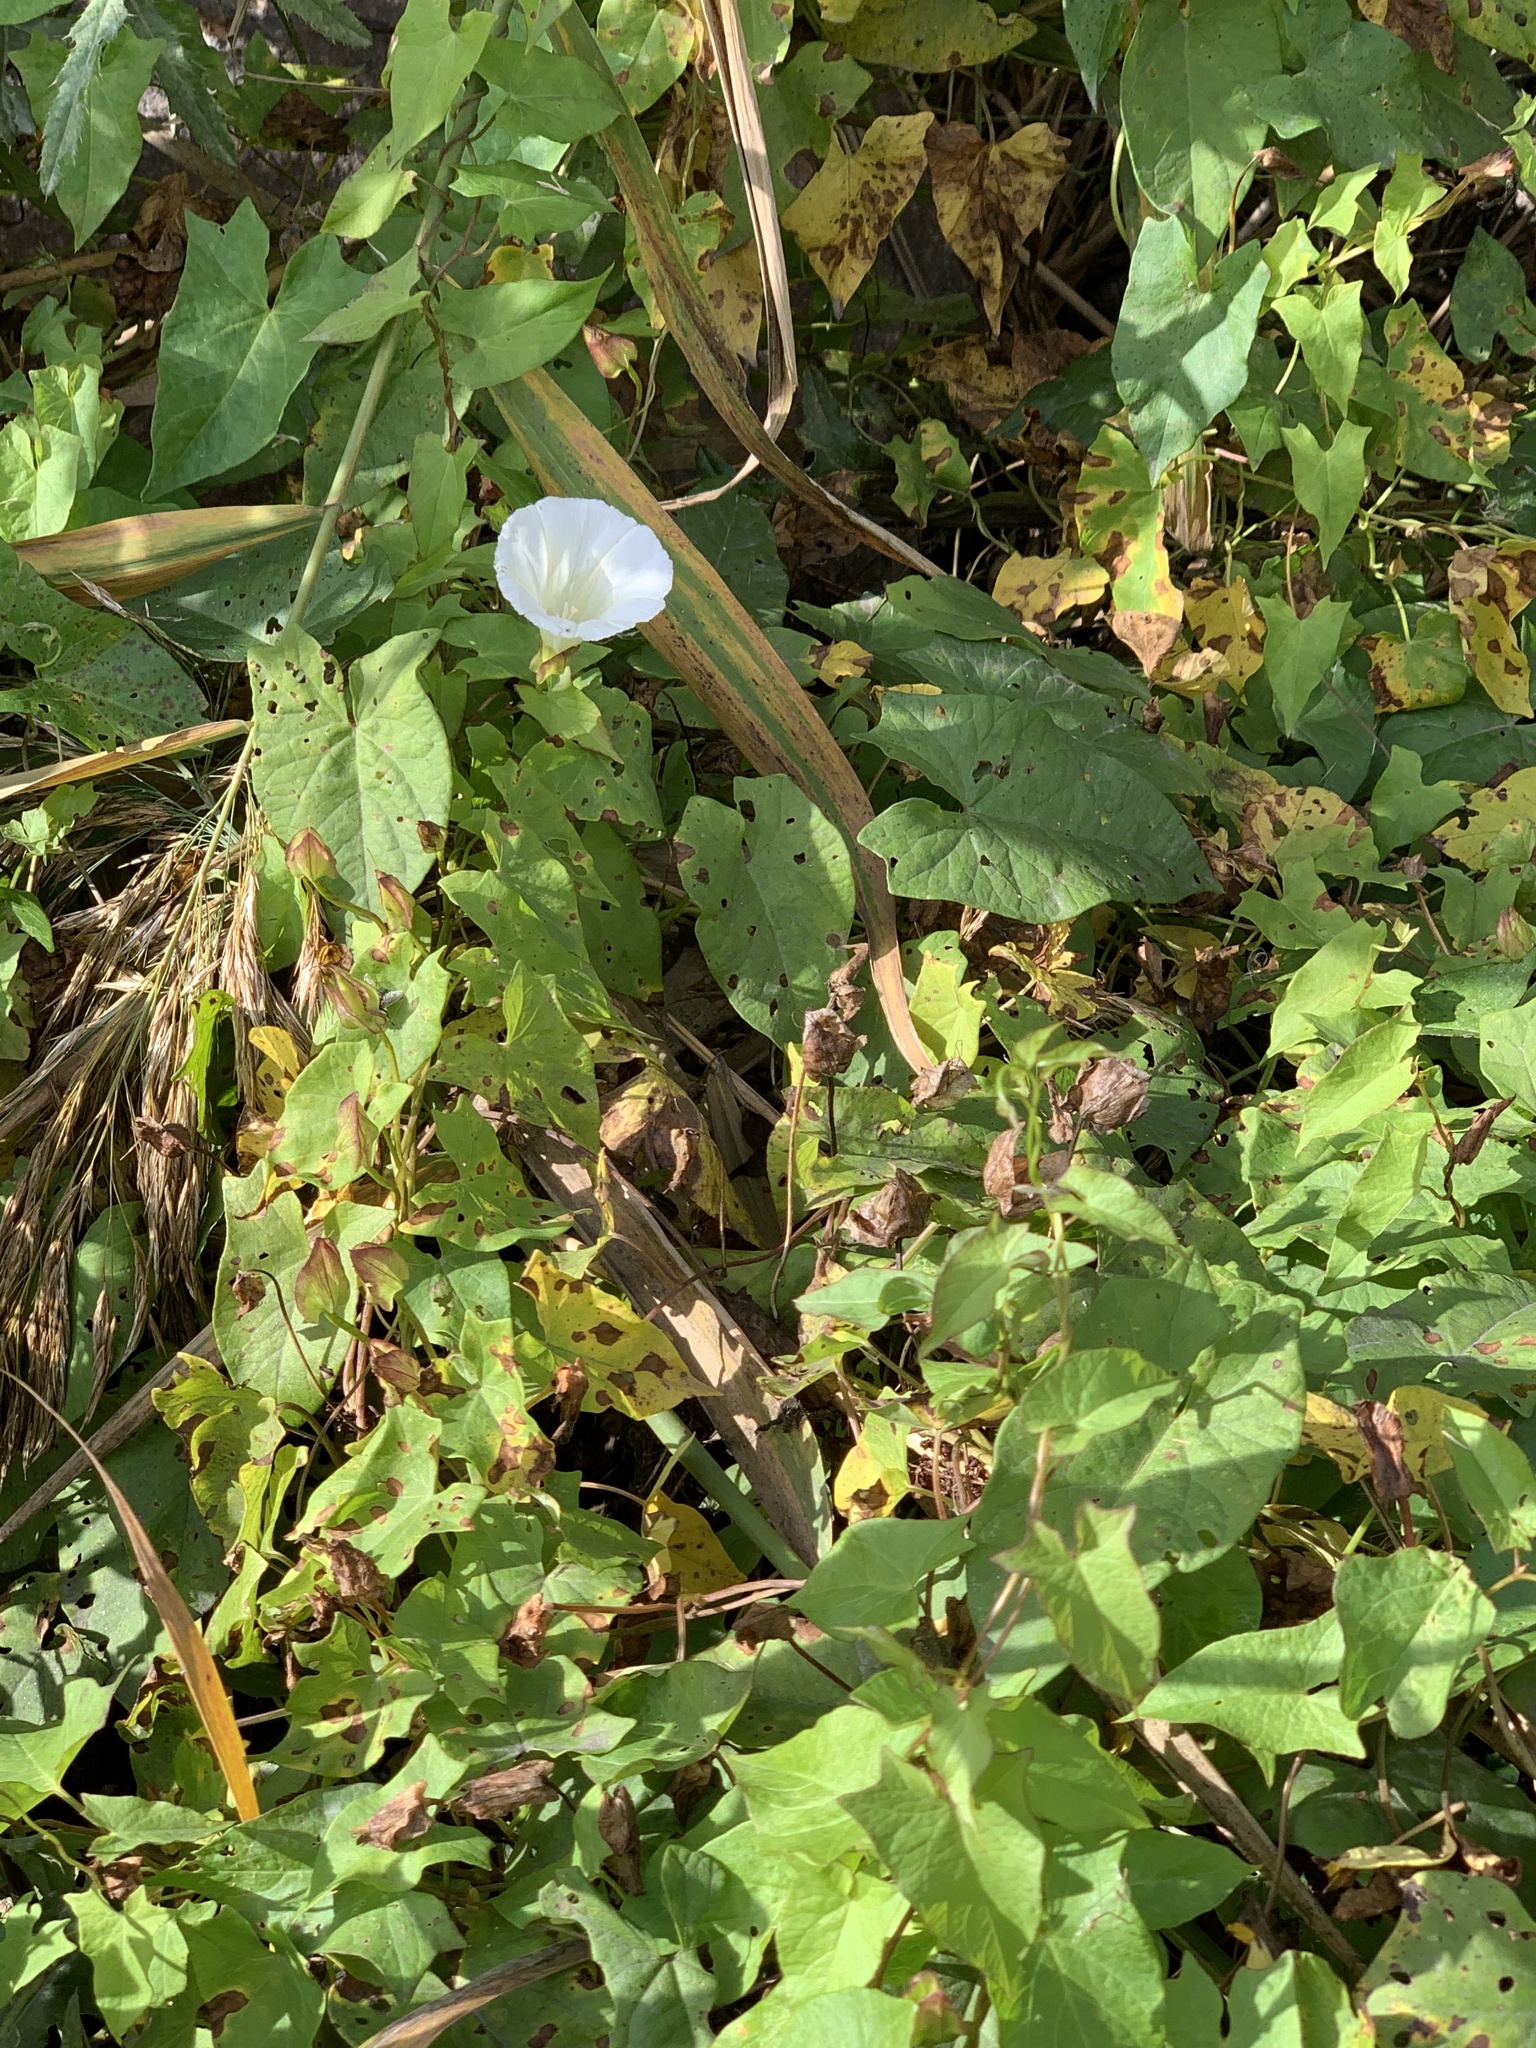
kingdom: Plantae
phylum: Tracheophyta
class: Magnoliopsida
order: Solanales
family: Convolvulaceae
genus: Calystegia
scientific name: Calystegia sepium
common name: Hedge bindweed
